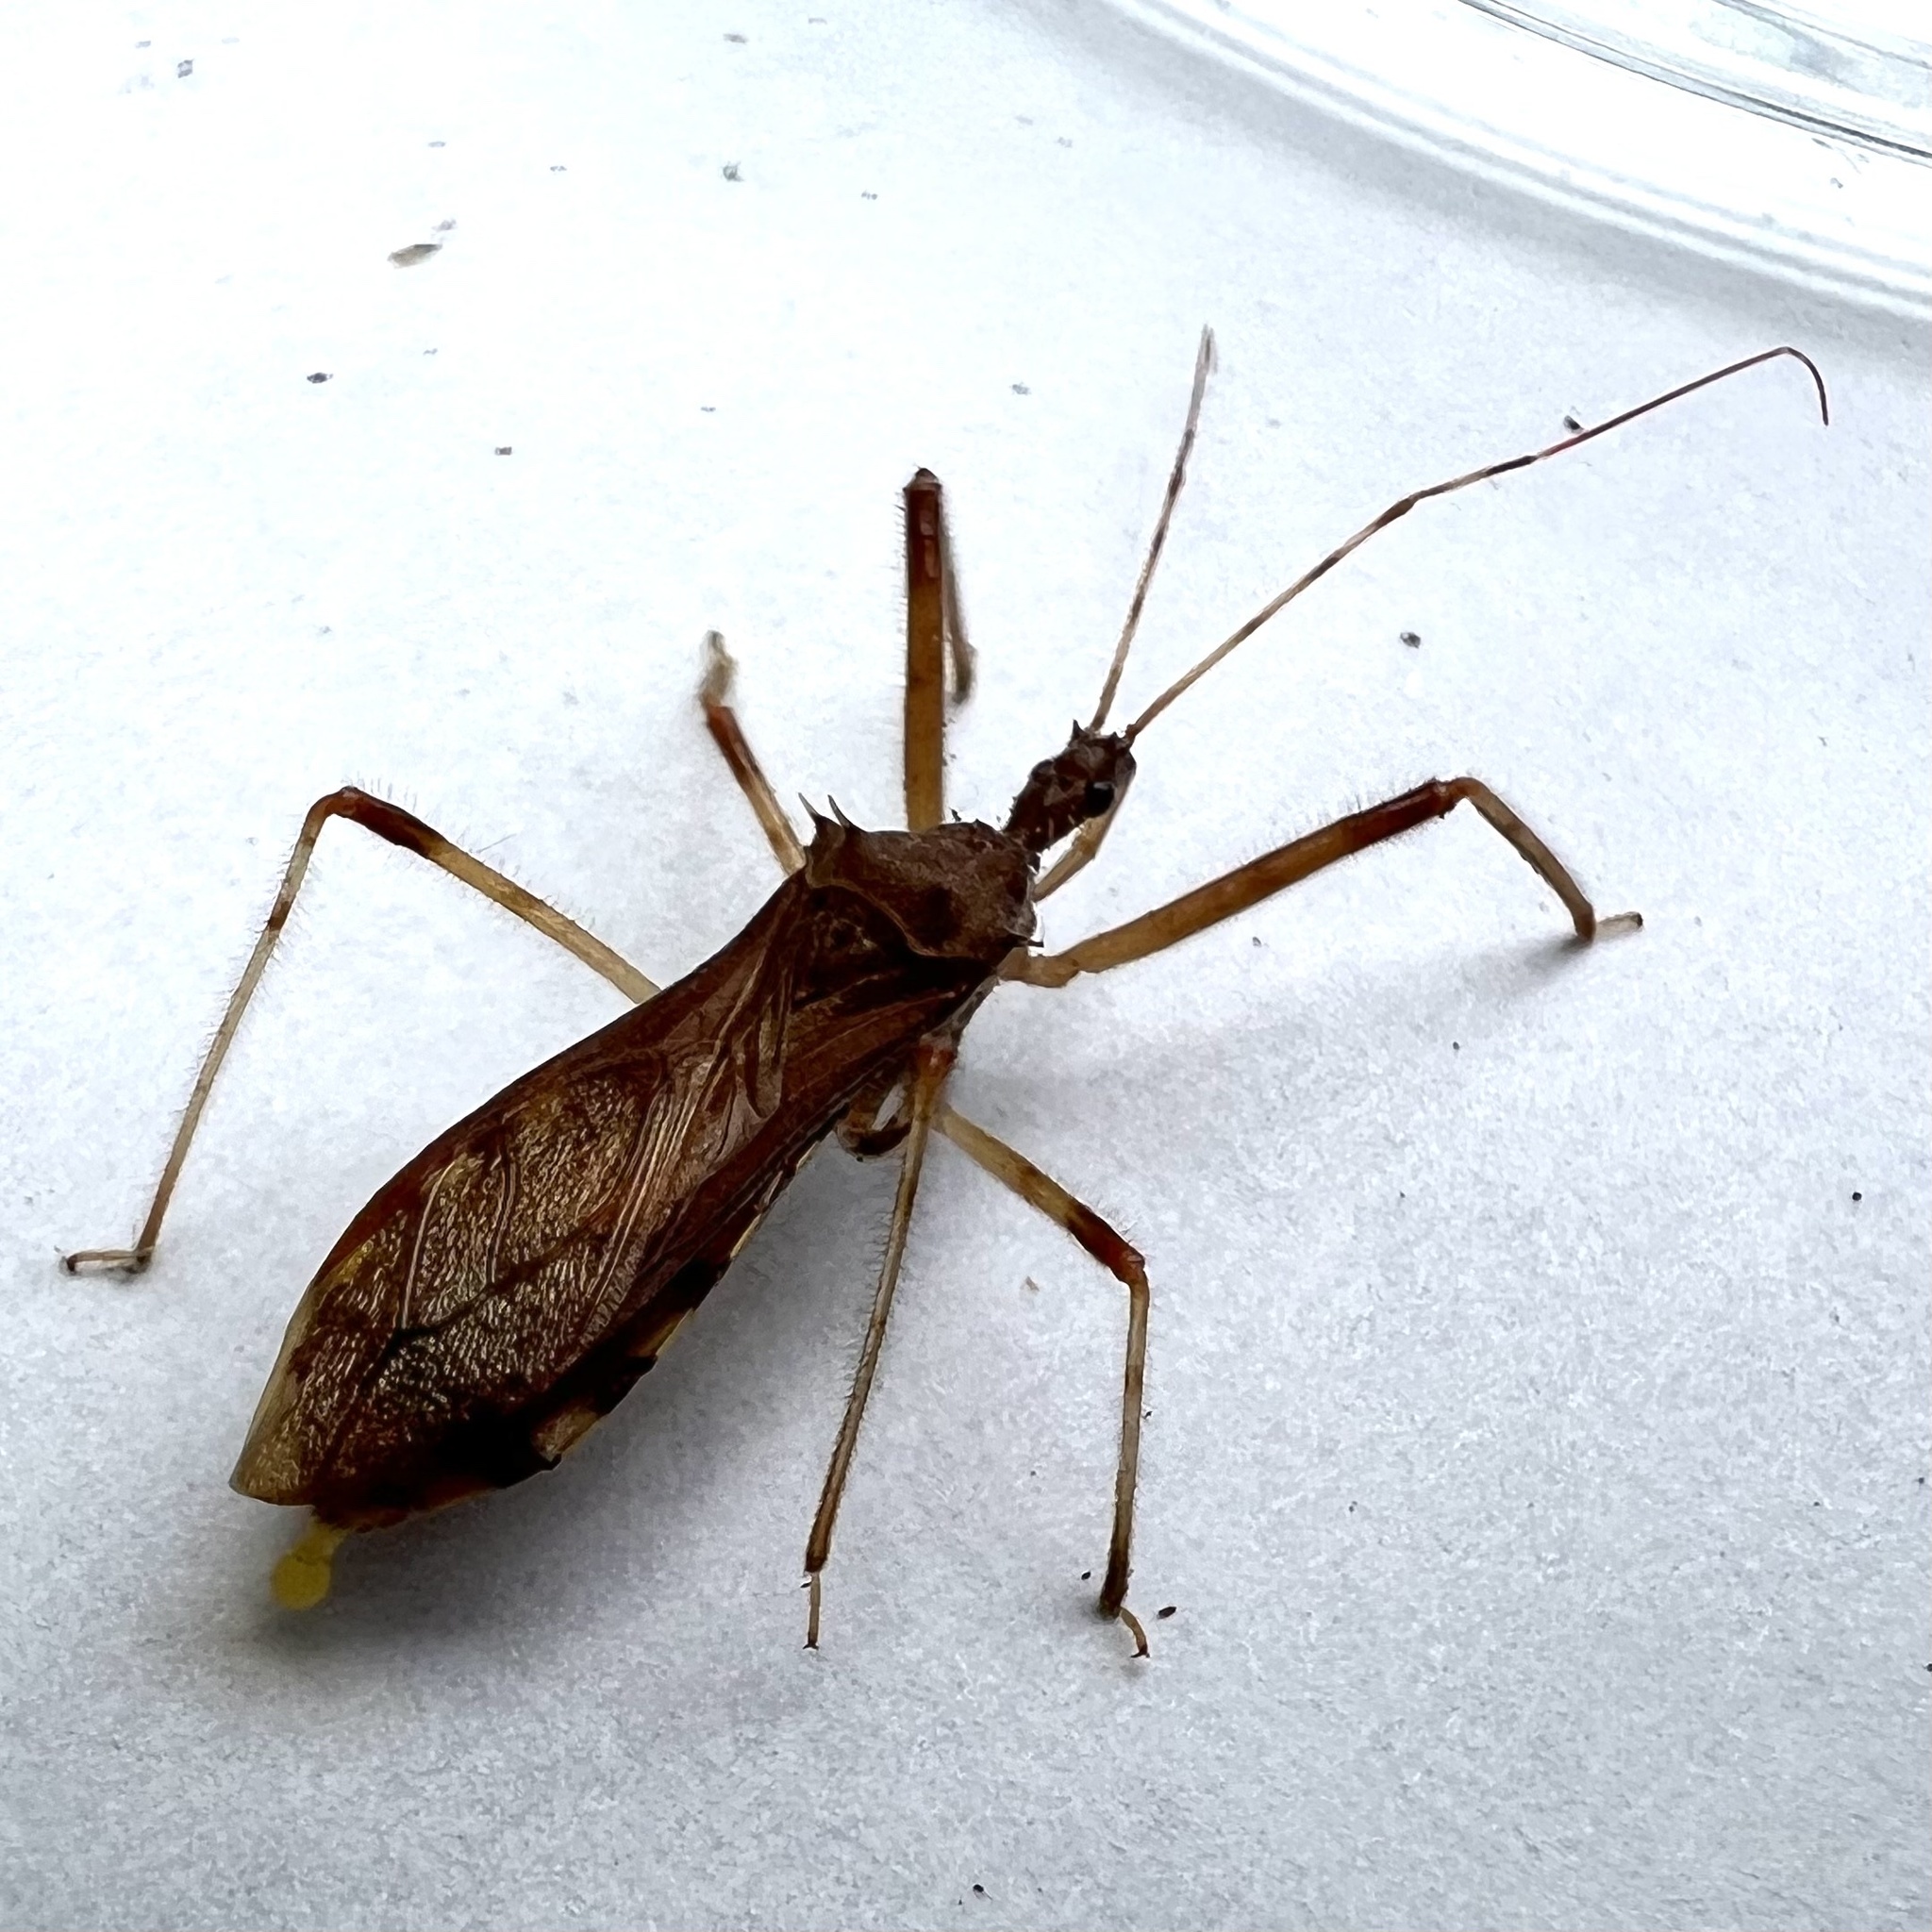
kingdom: Animalia
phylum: Arthropoda
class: Insecta
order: Hemiptera
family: Reduviidae
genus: Rocconota
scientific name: Rocconota annulicornis
